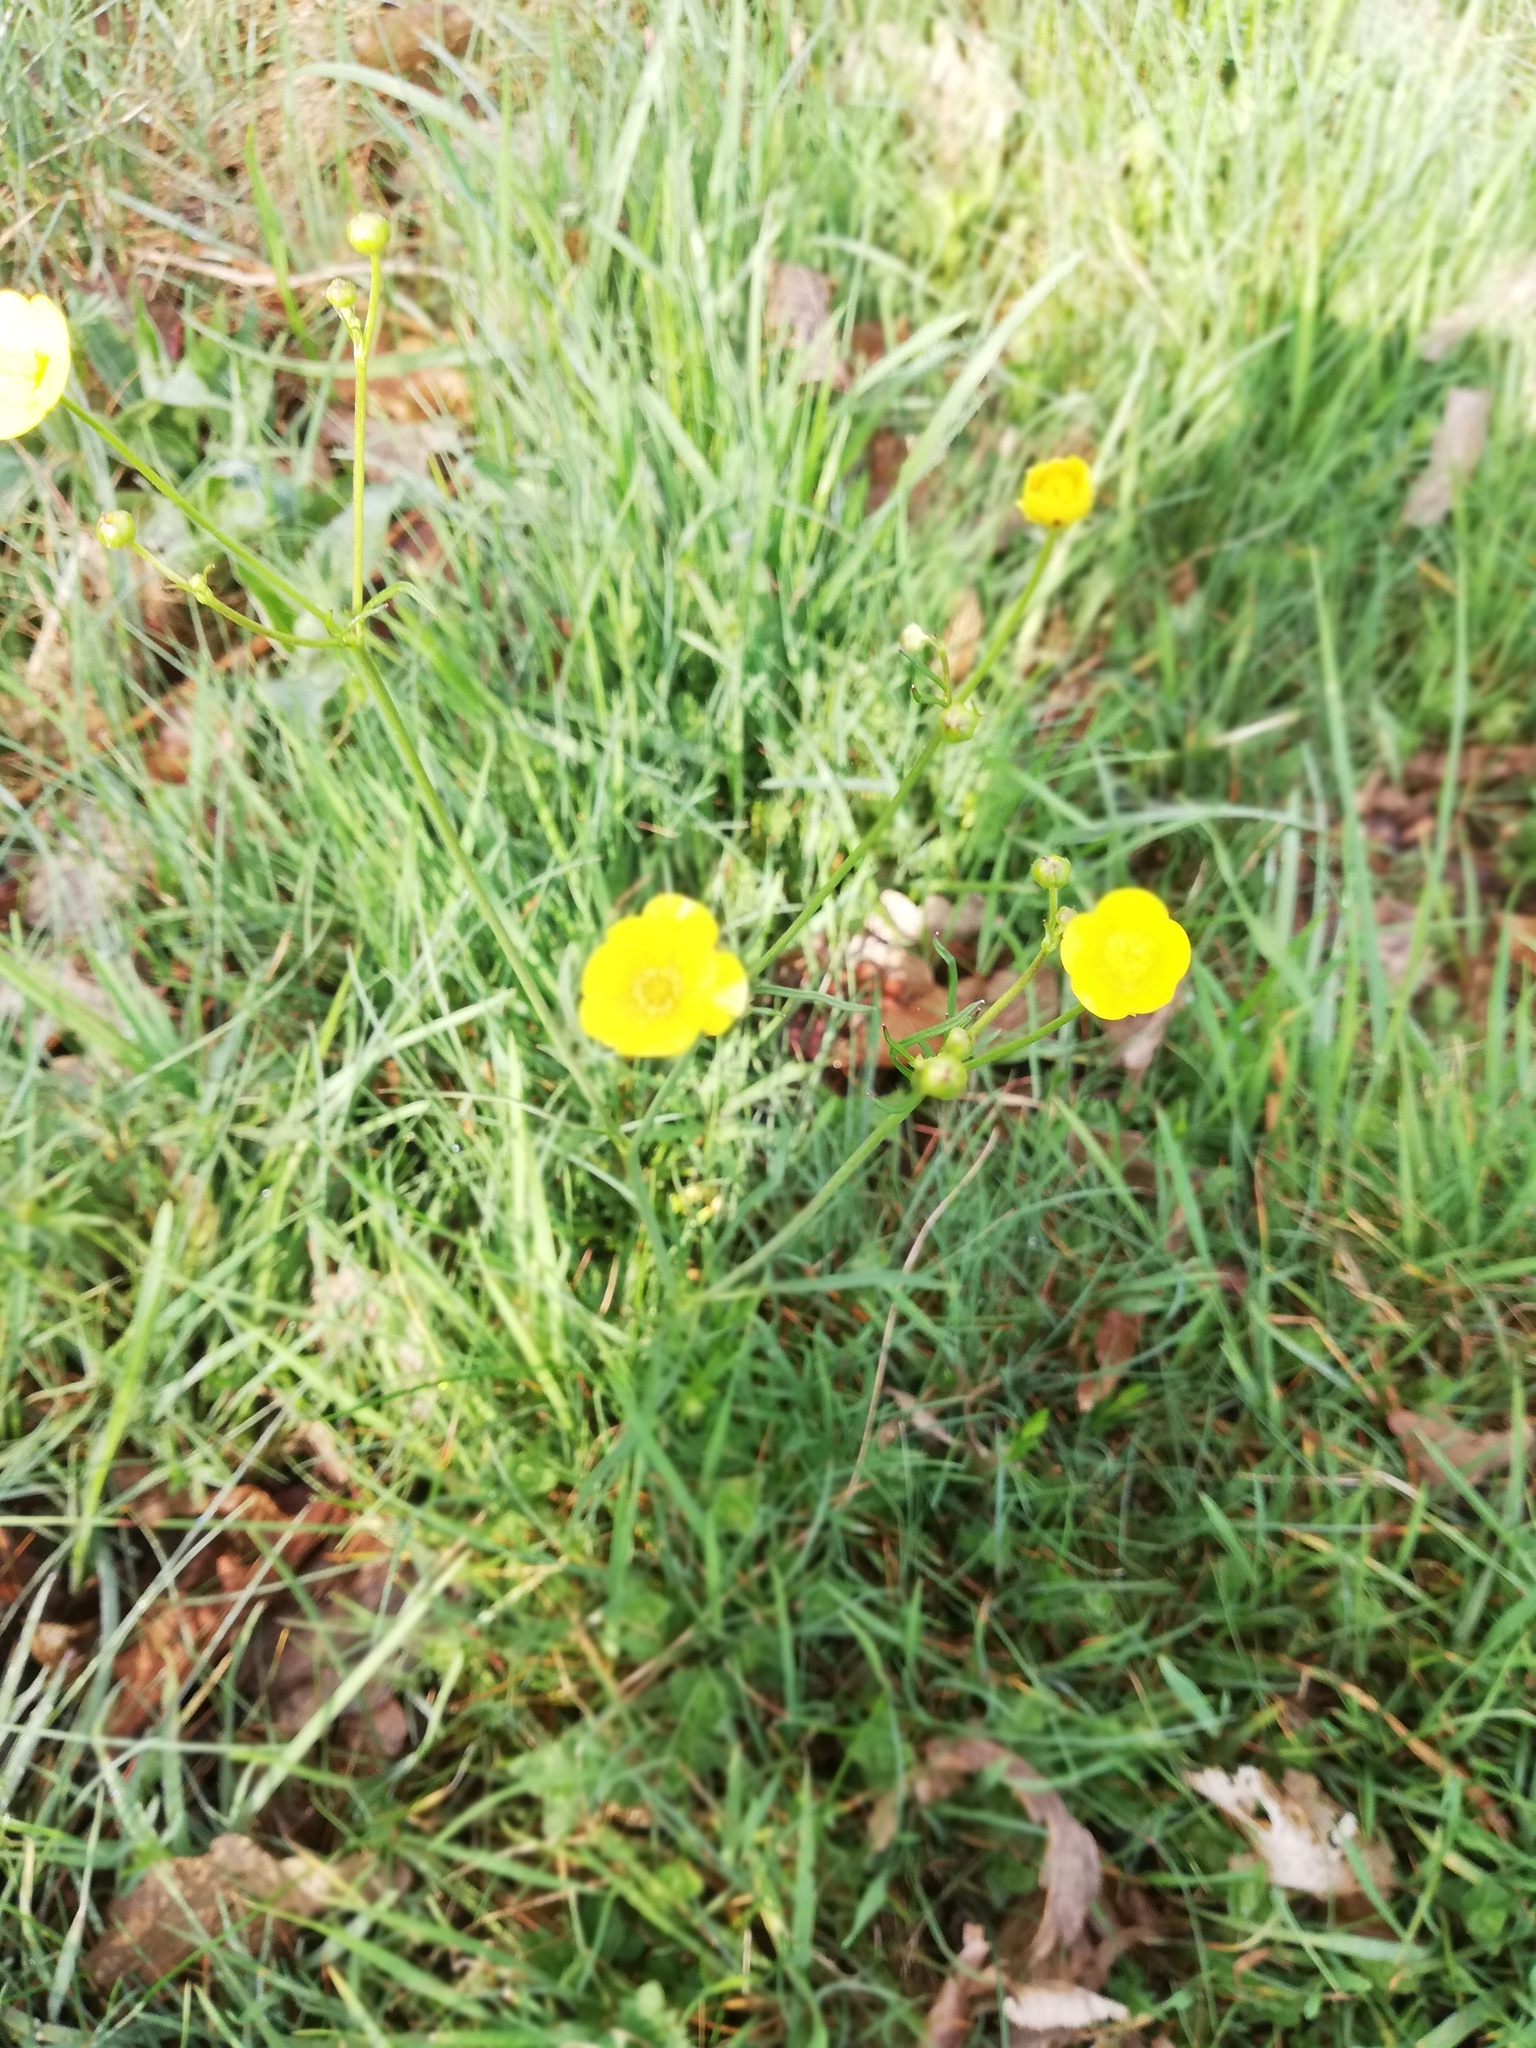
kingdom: Plantae
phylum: Tracheophyta
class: Magnoliopsida
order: Ranunculales
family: Ranunculaceae
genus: Ranunculus
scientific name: Ranunculus acris
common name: Meadow buttercup
